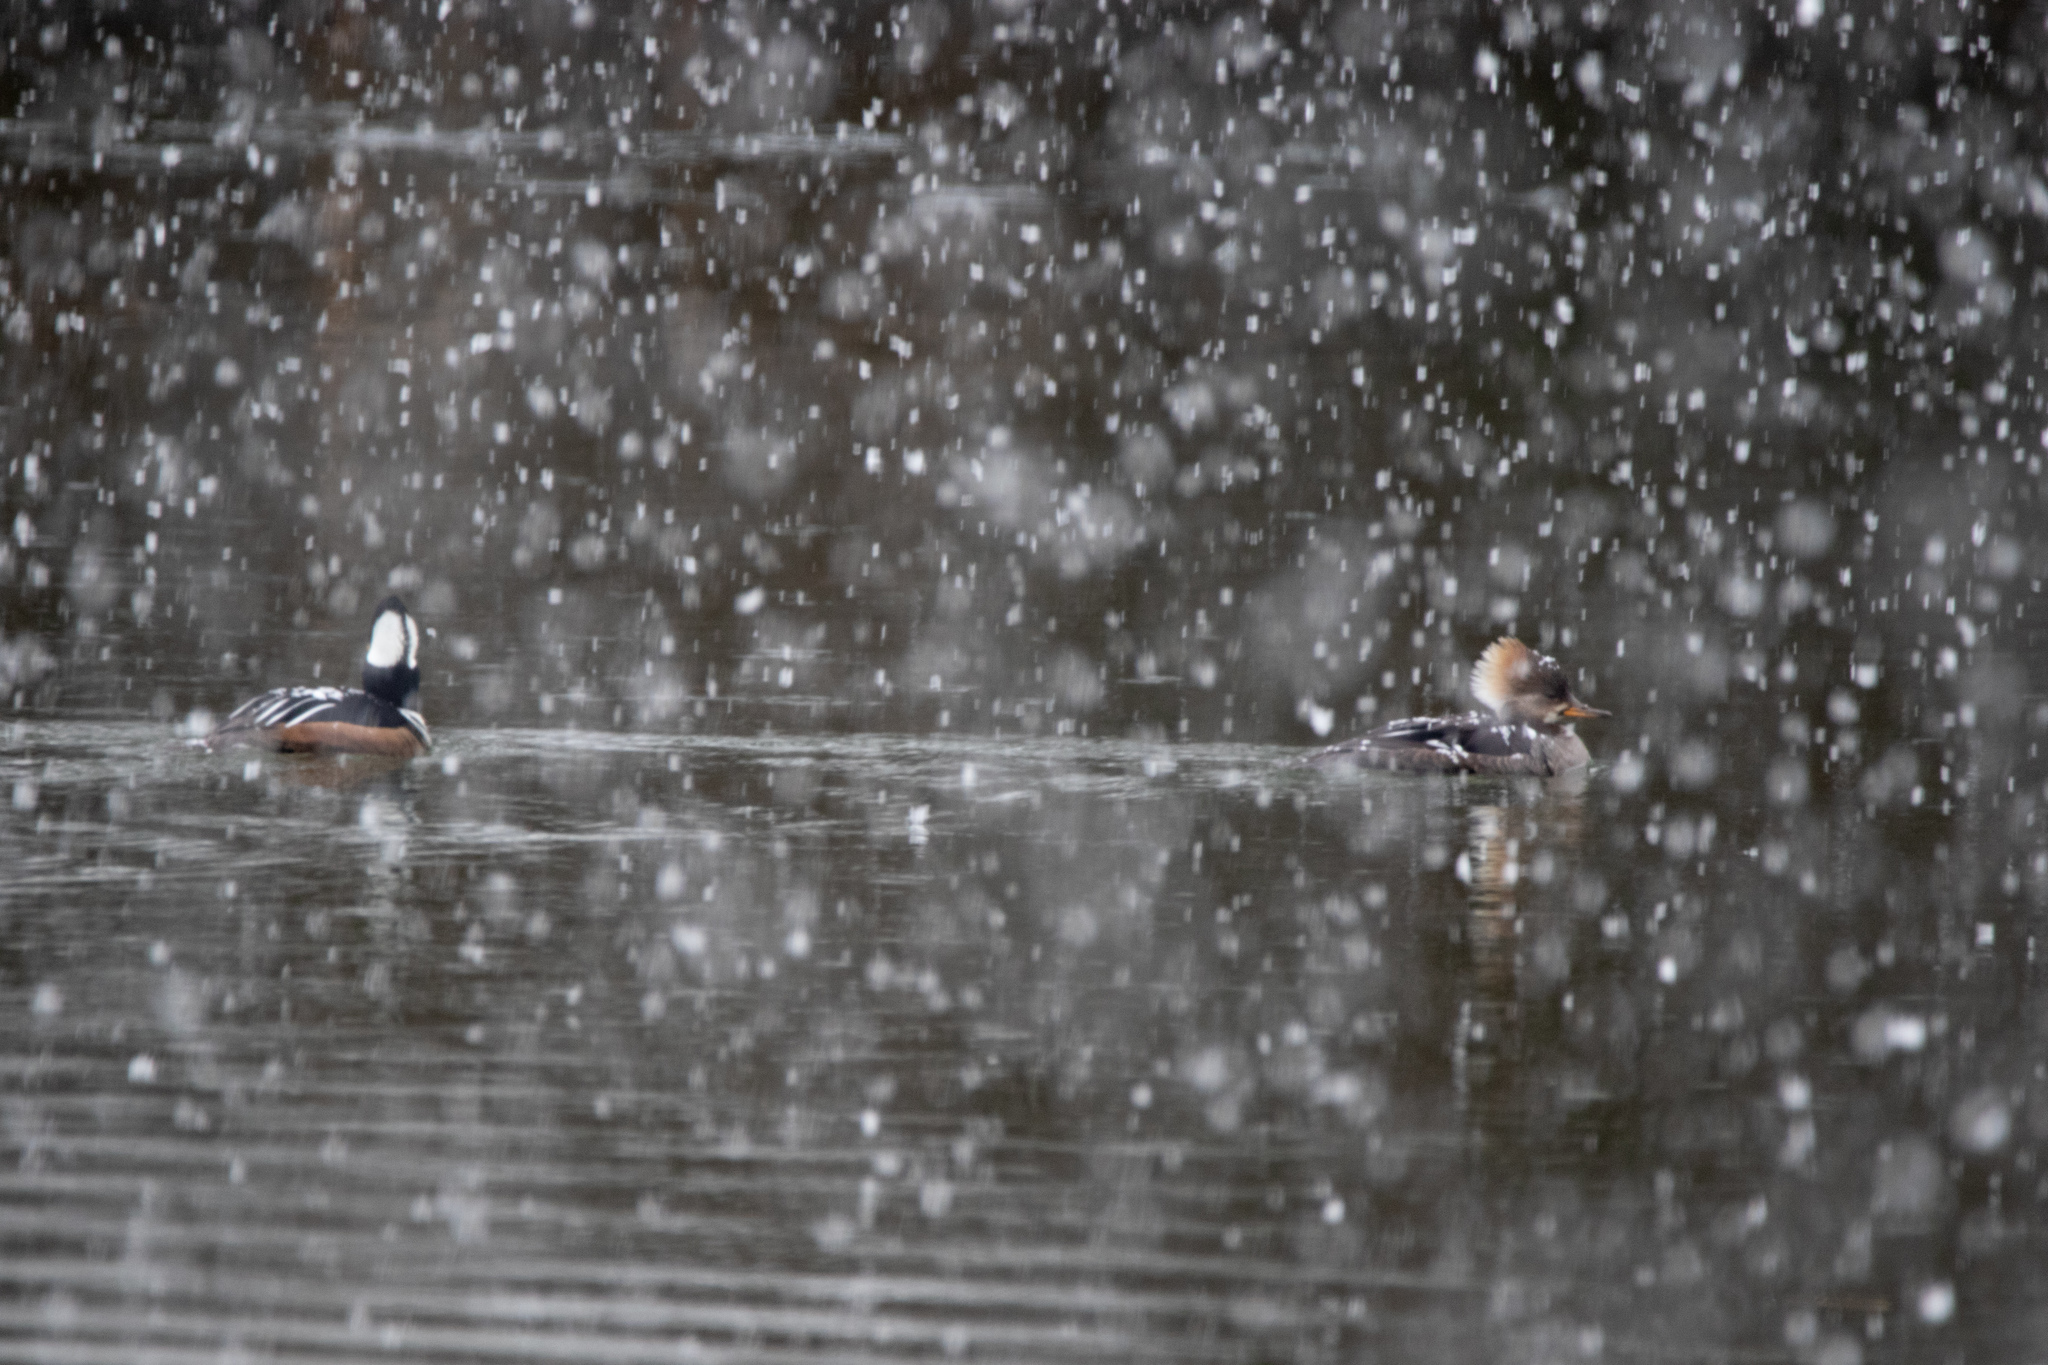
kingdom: Animalia
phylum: Chordata
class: Aves
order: Anseriformes
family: Anatidae
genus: Lophodytes
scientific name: Lophodytes cucullatus
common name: Hooded merganser
